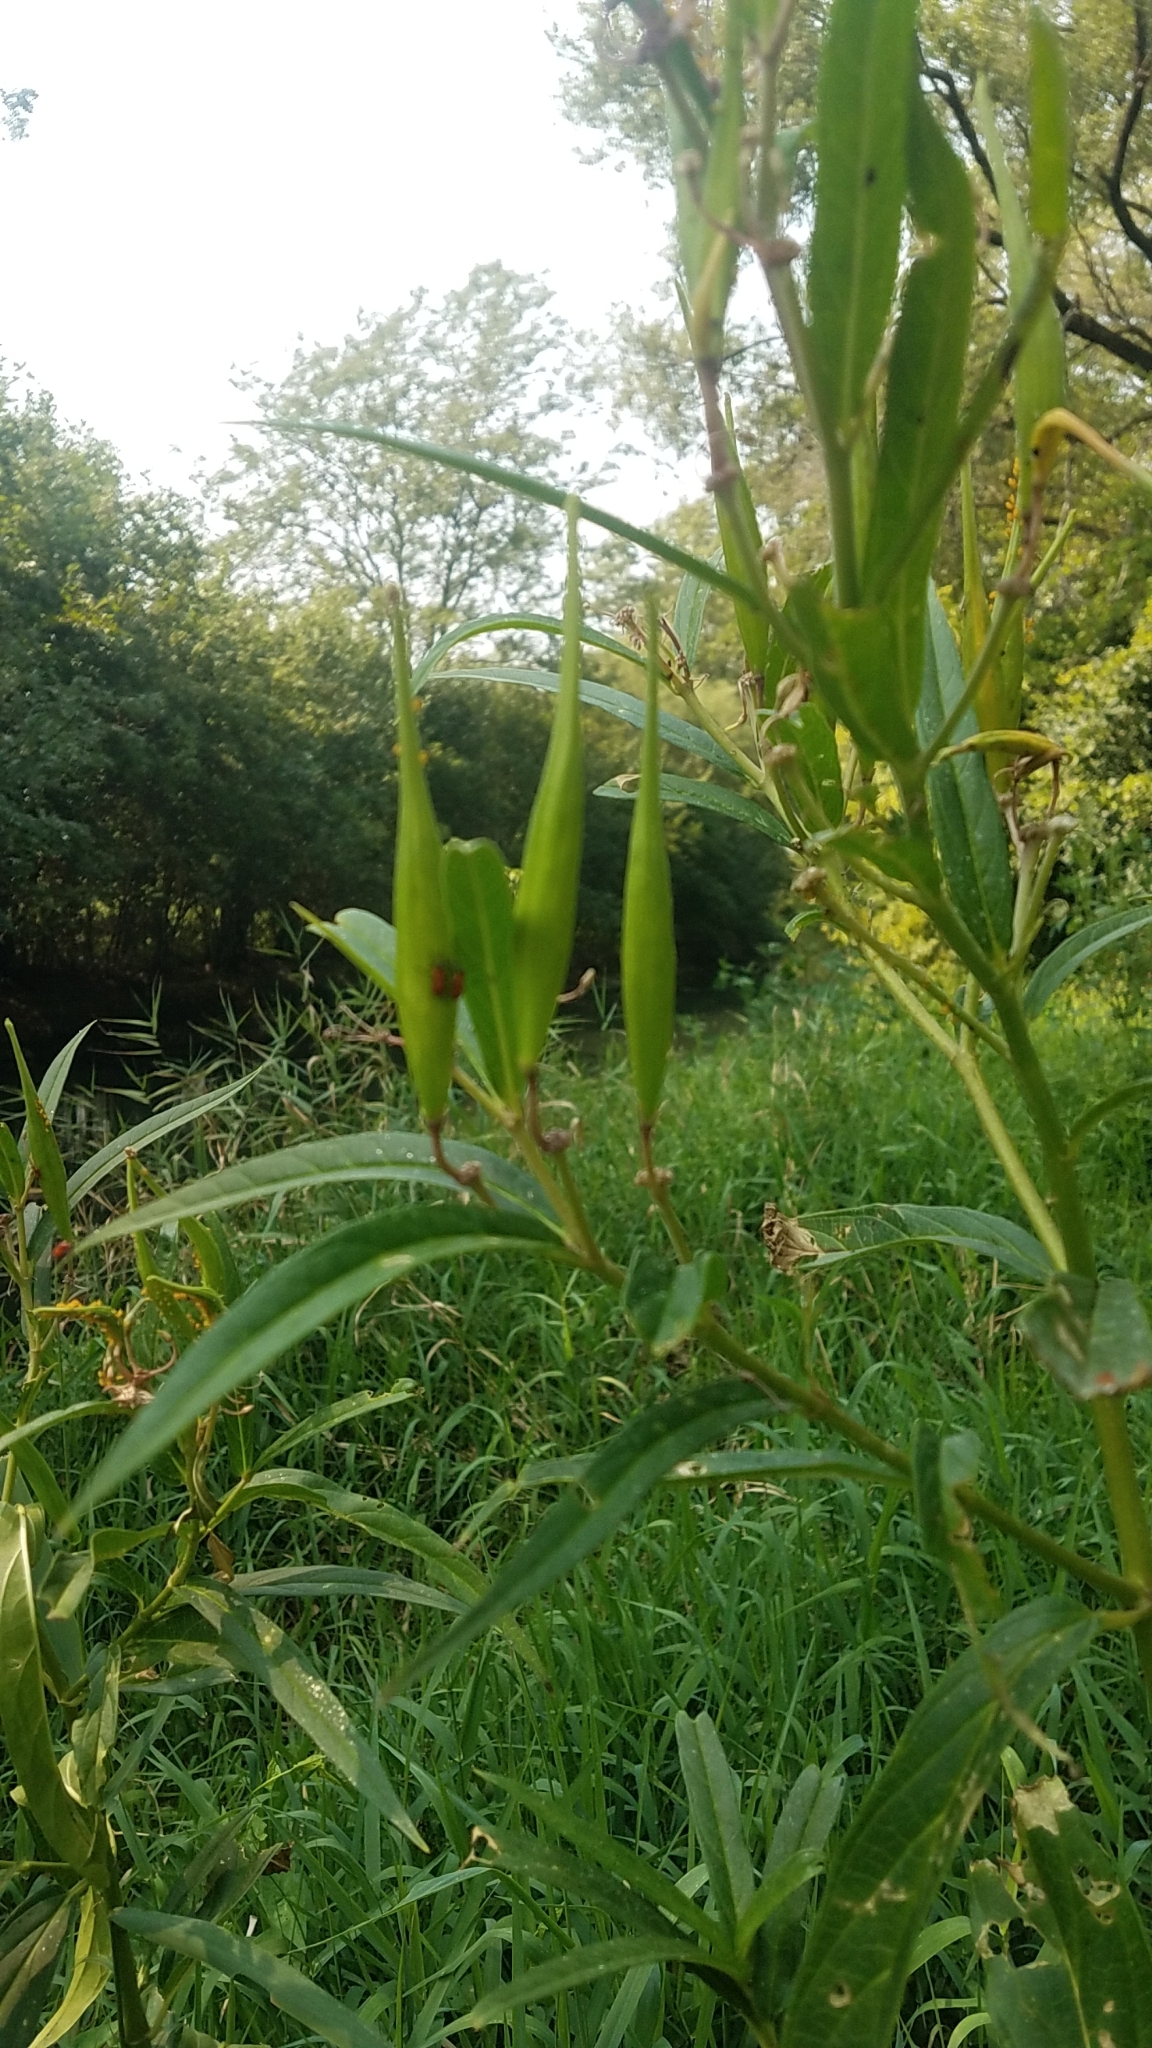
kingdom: Plantae
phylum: Tracheophyta
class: Magnoliopsida
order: Gentianales
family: Apocynaceae
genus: Asclepias
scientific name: Asclepias incarnata
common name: Swamp milkweed
